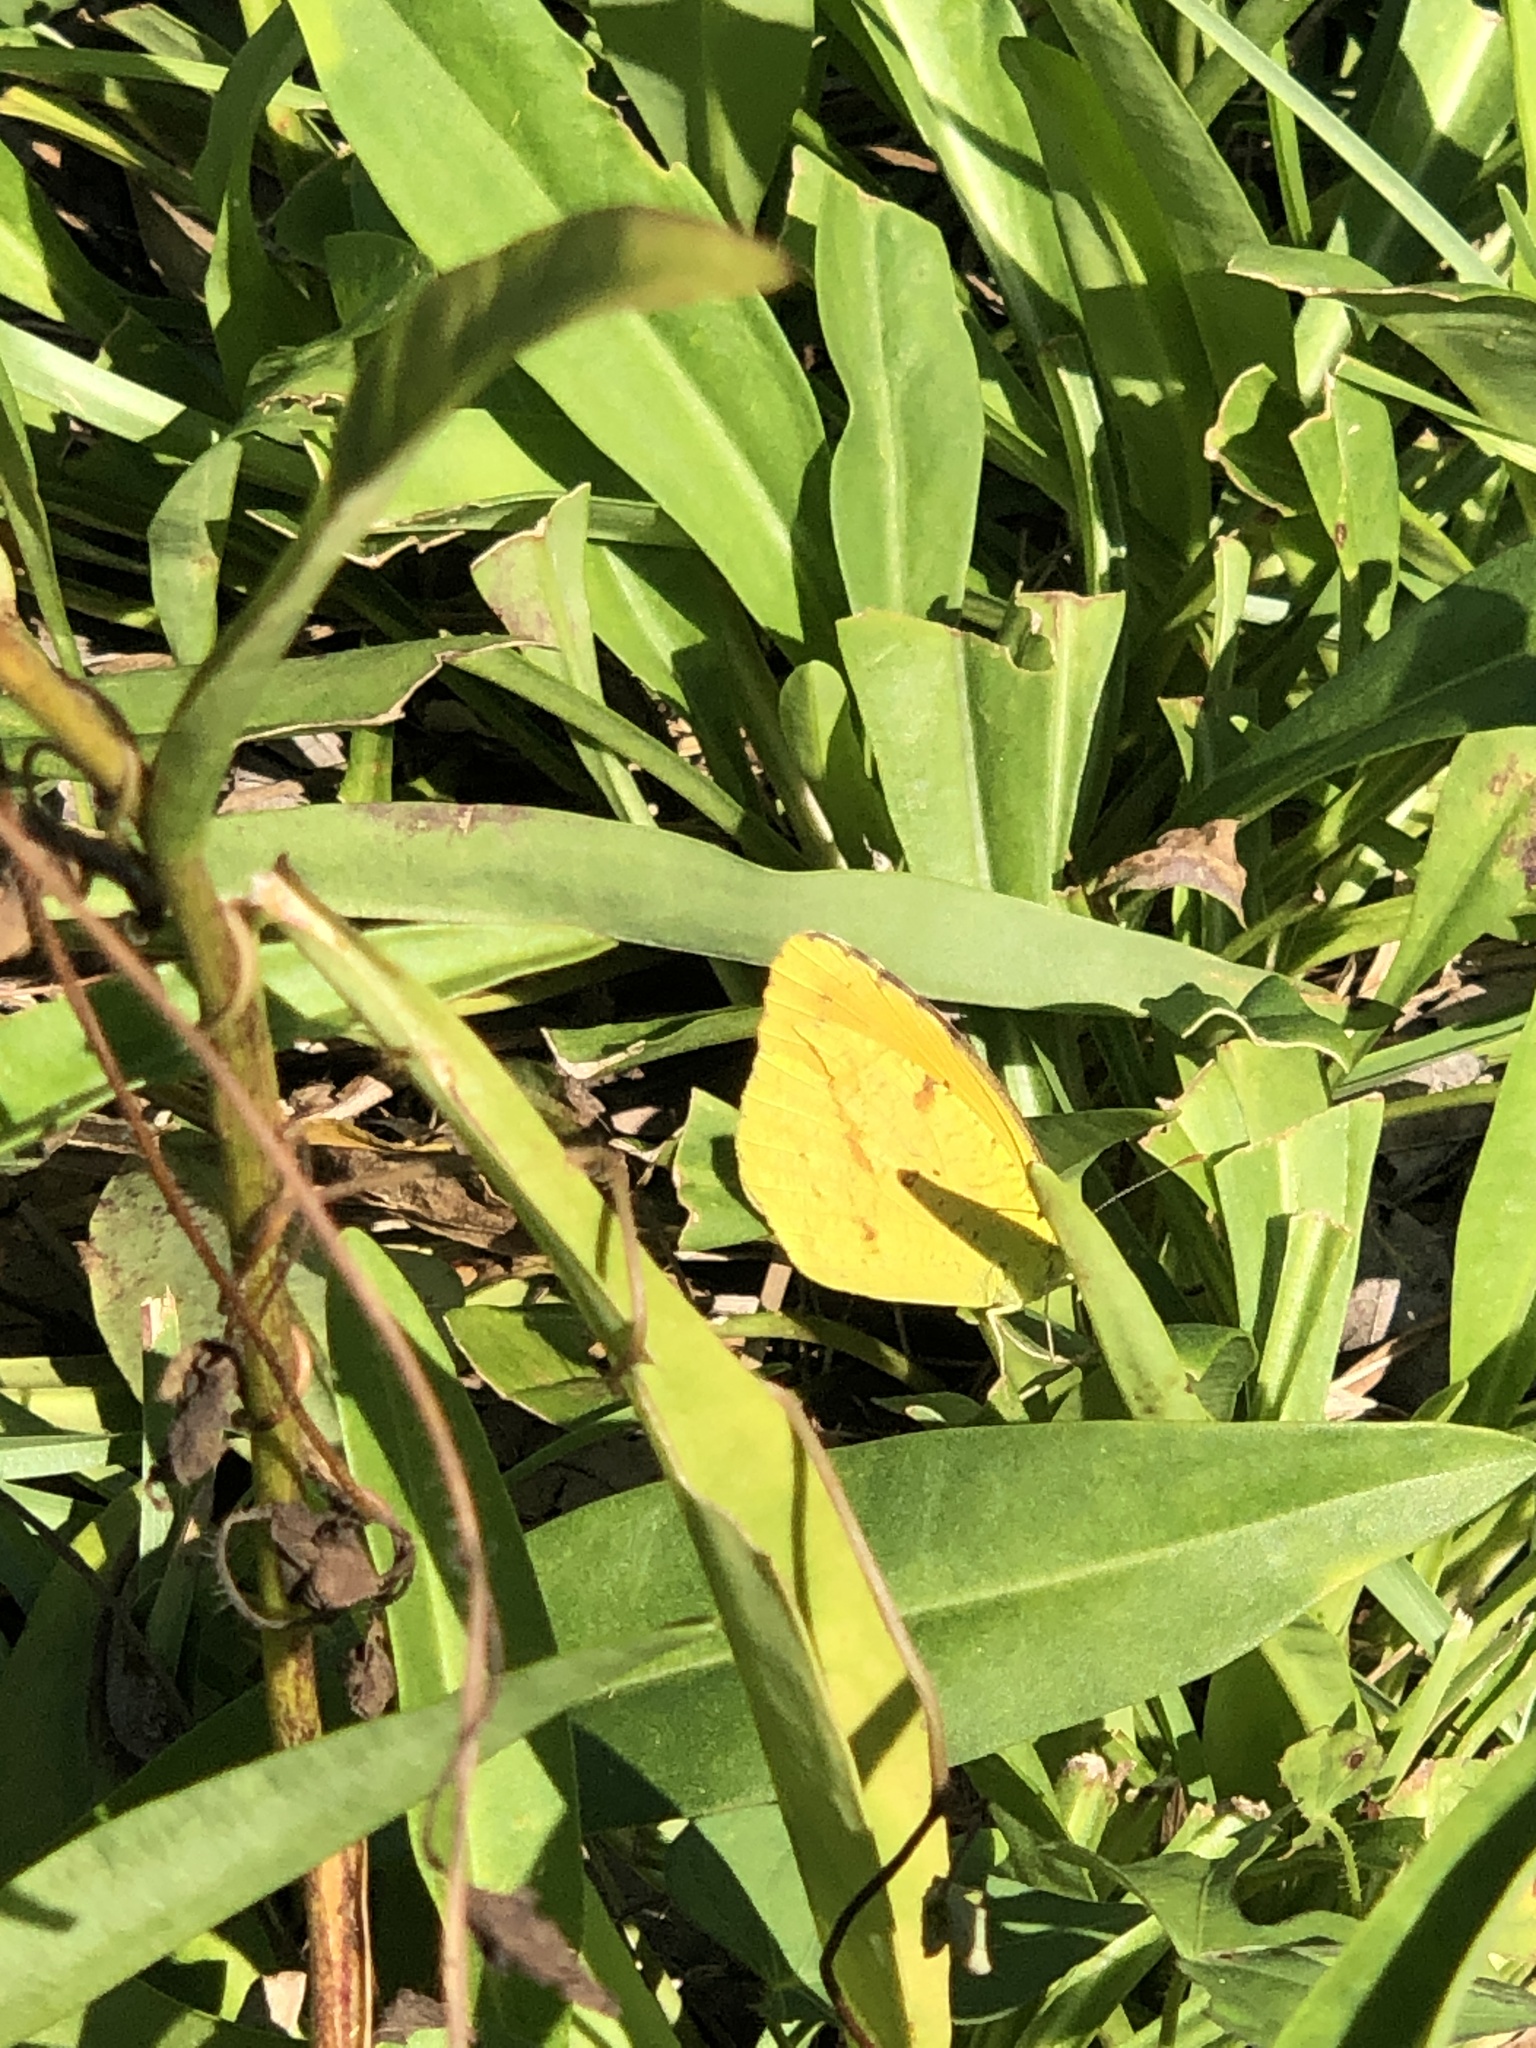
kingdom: Animalia
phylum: Arthropoda
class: Insecta
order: Lepidoptera
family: Pieridae
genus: Abaeis
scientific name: Abaeis nicippe
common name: Sleepy orange
